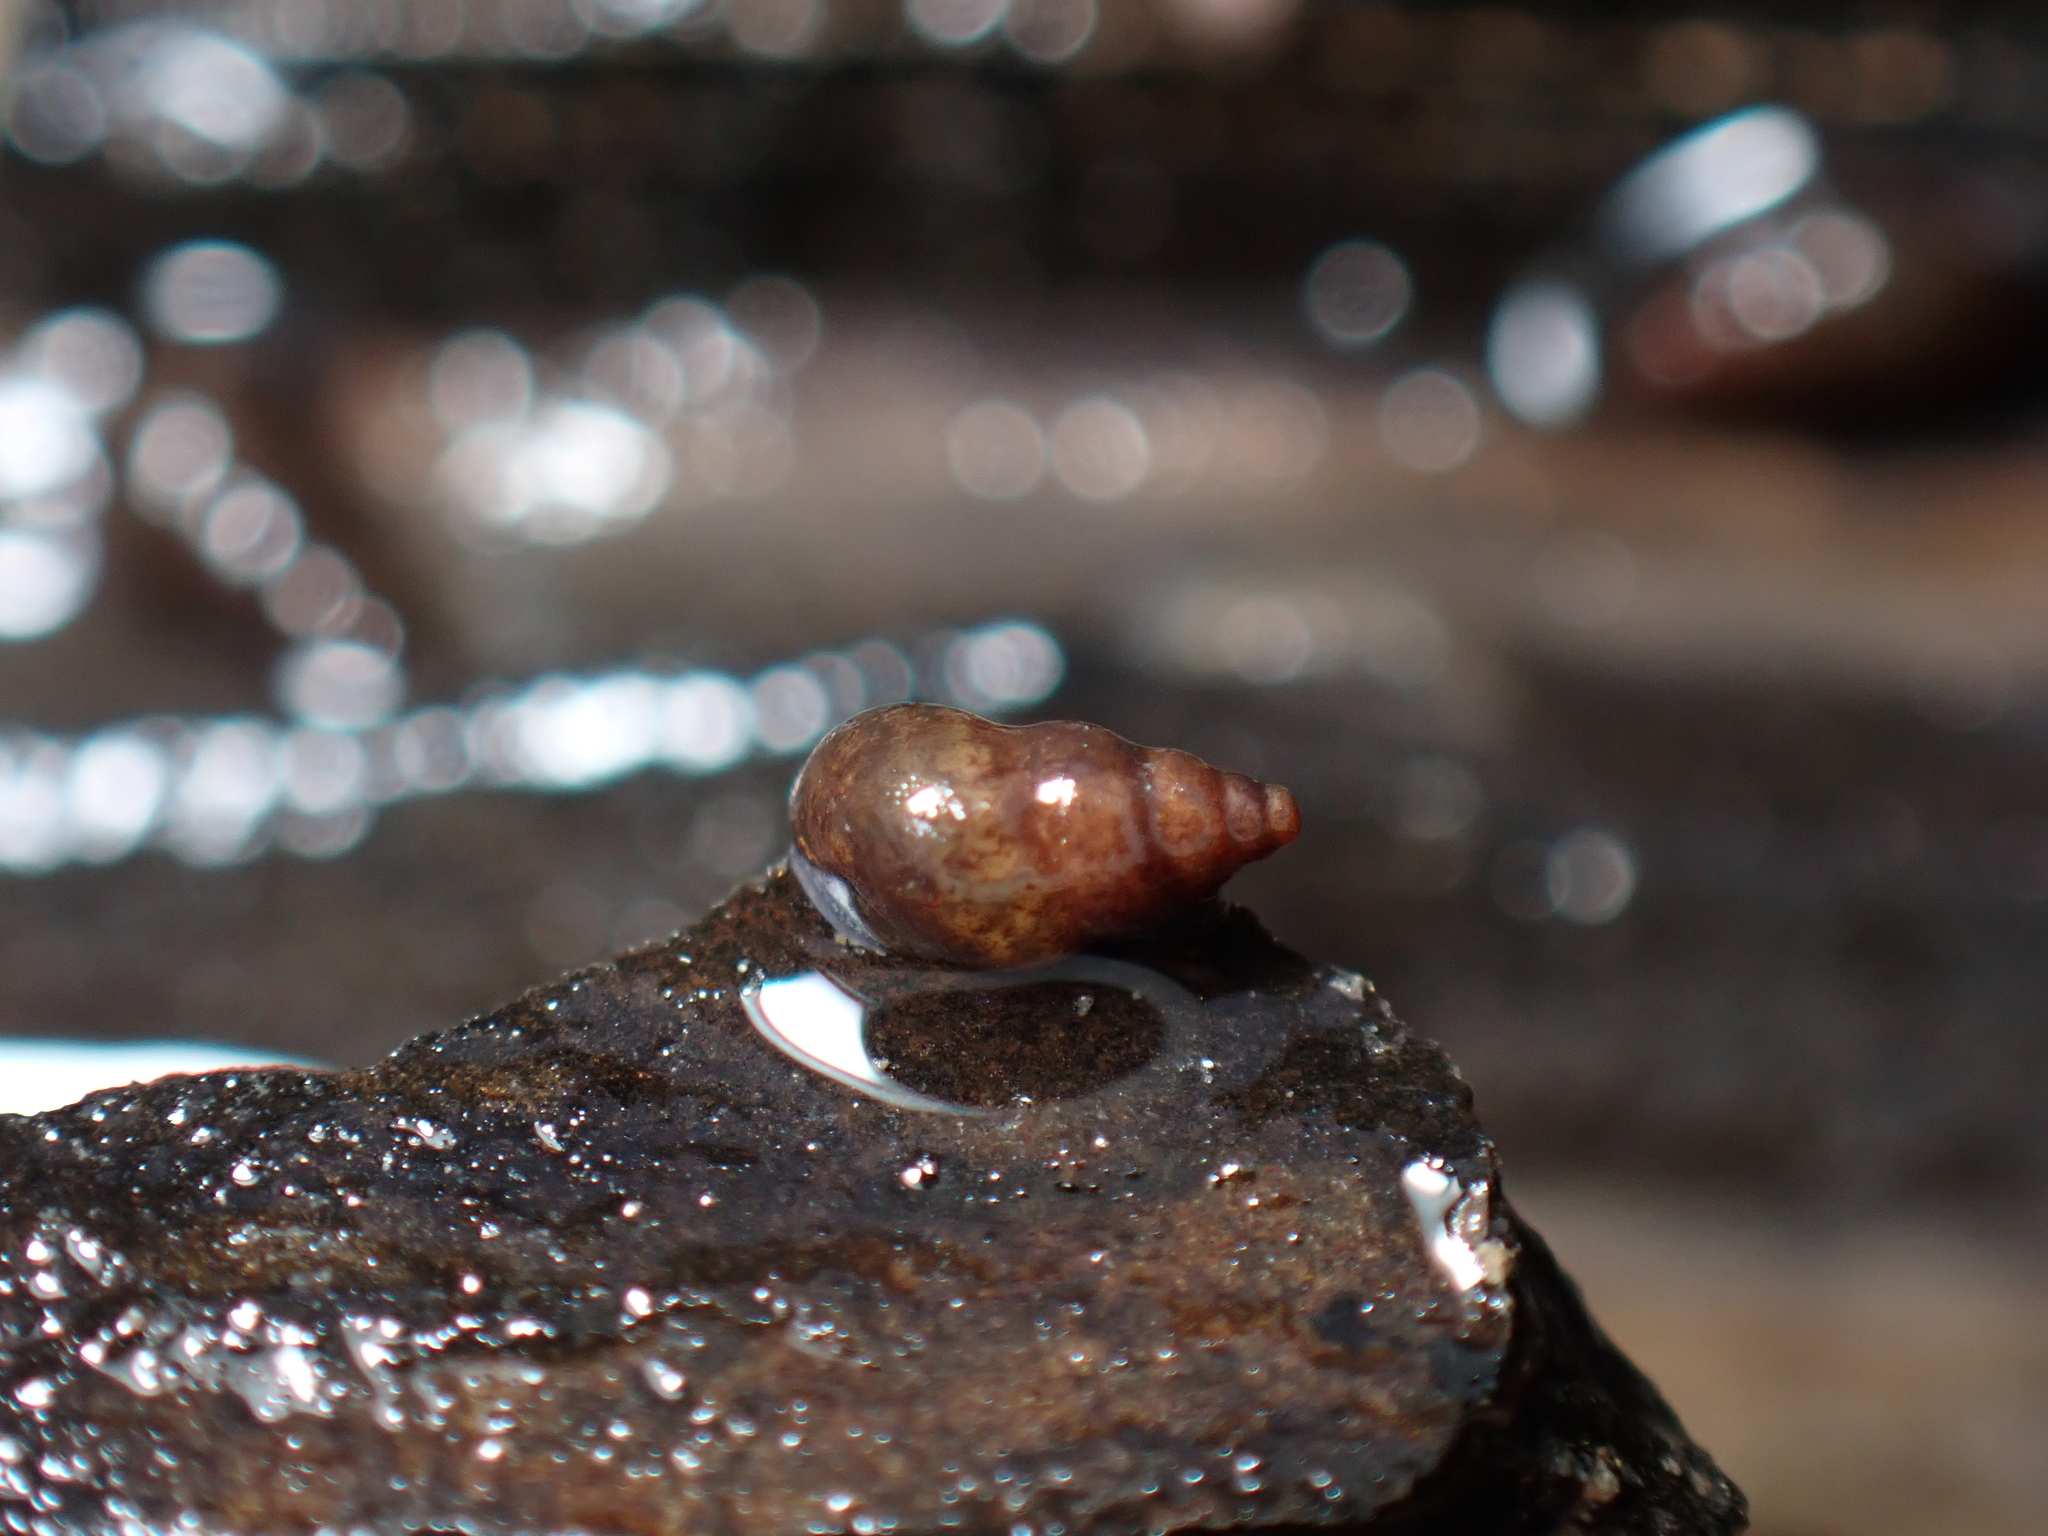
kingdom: Animalia
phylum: Mollusca
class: Gastropoda
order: Littorinimorpha
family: Tateidae
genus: Potamopyrgus
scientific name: Potamopyrgus antipodarum
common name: Jenkins' spire snail
